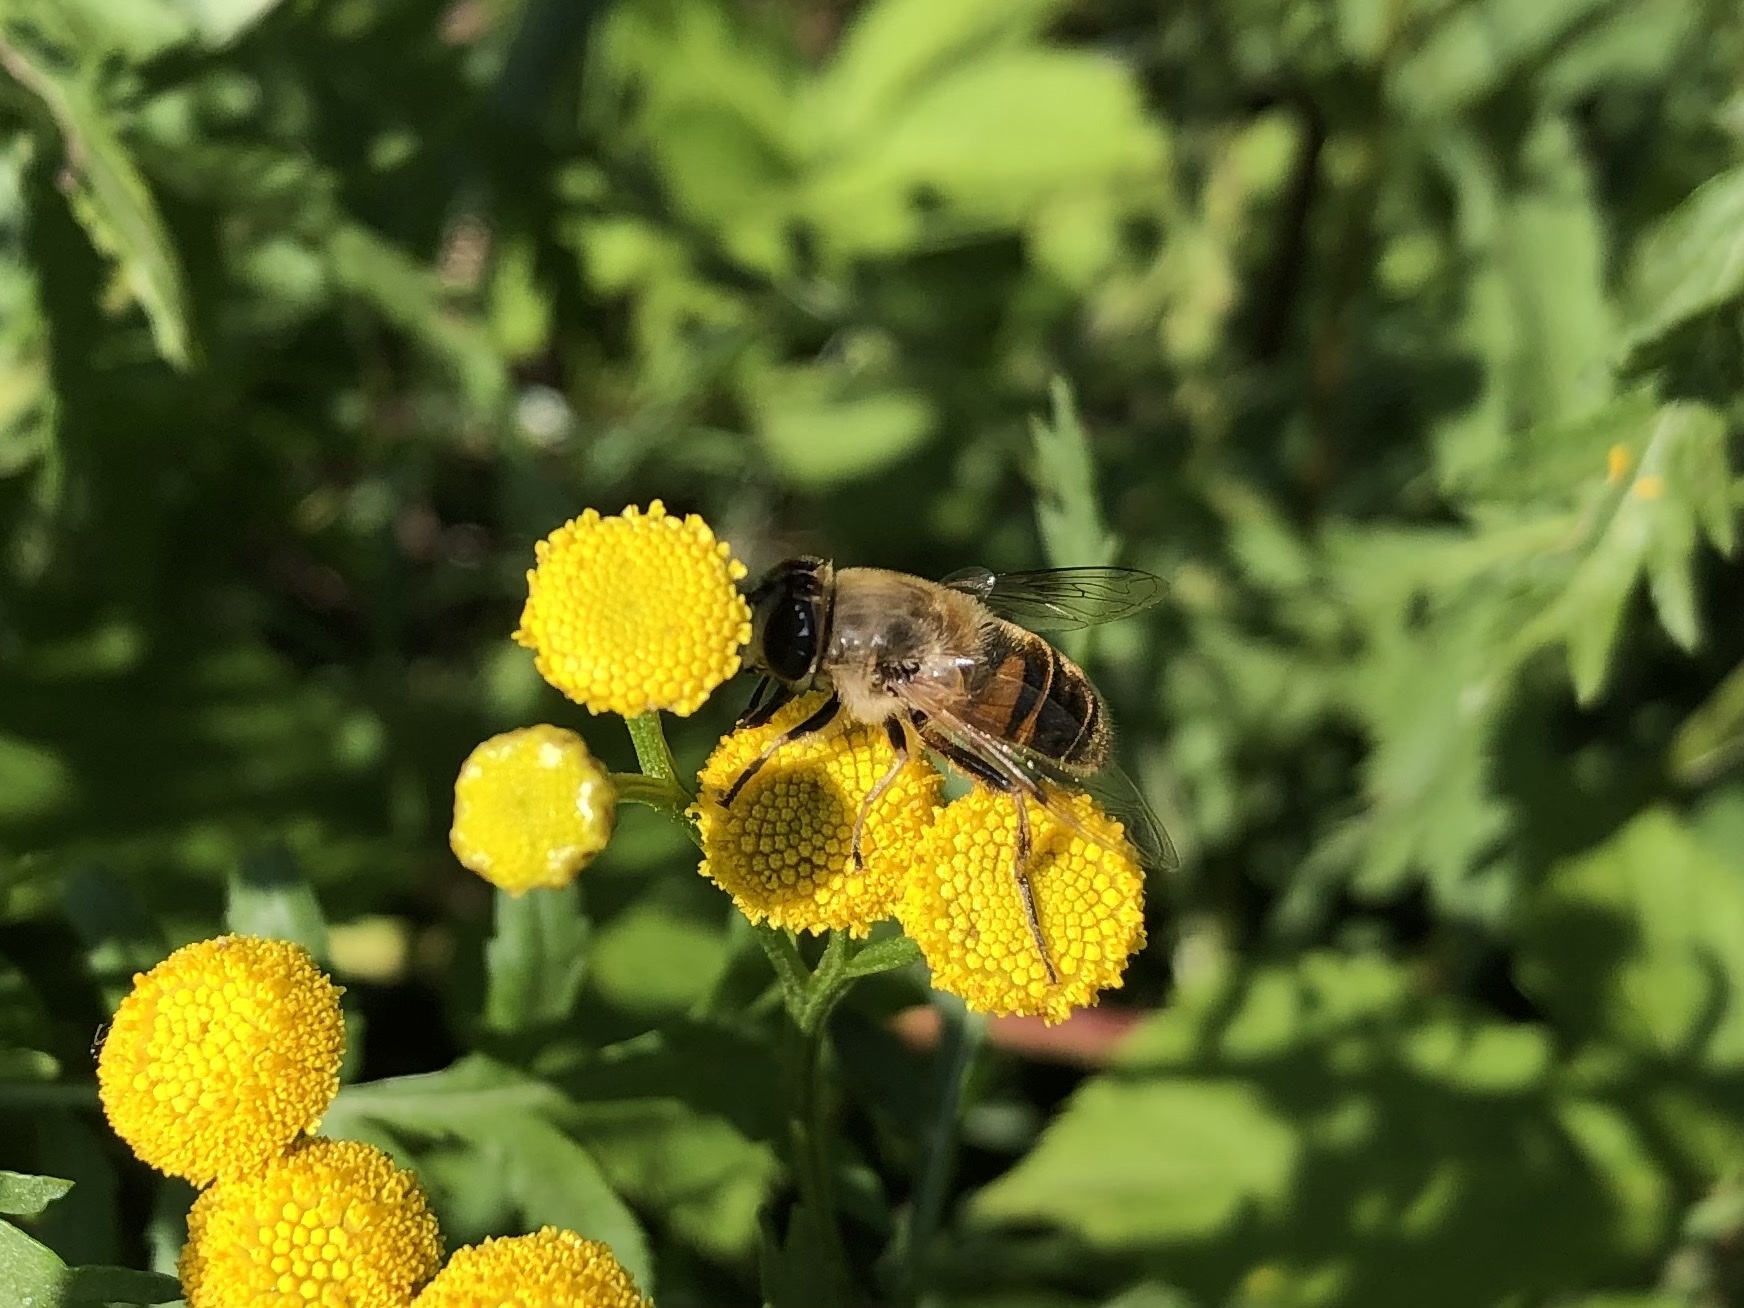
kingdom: Animalia
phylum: Arthropoda
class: Insecta
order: Diptera
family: Syrphidae
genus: Eristalis
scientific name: Eristalis tenax
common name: Drone fly
